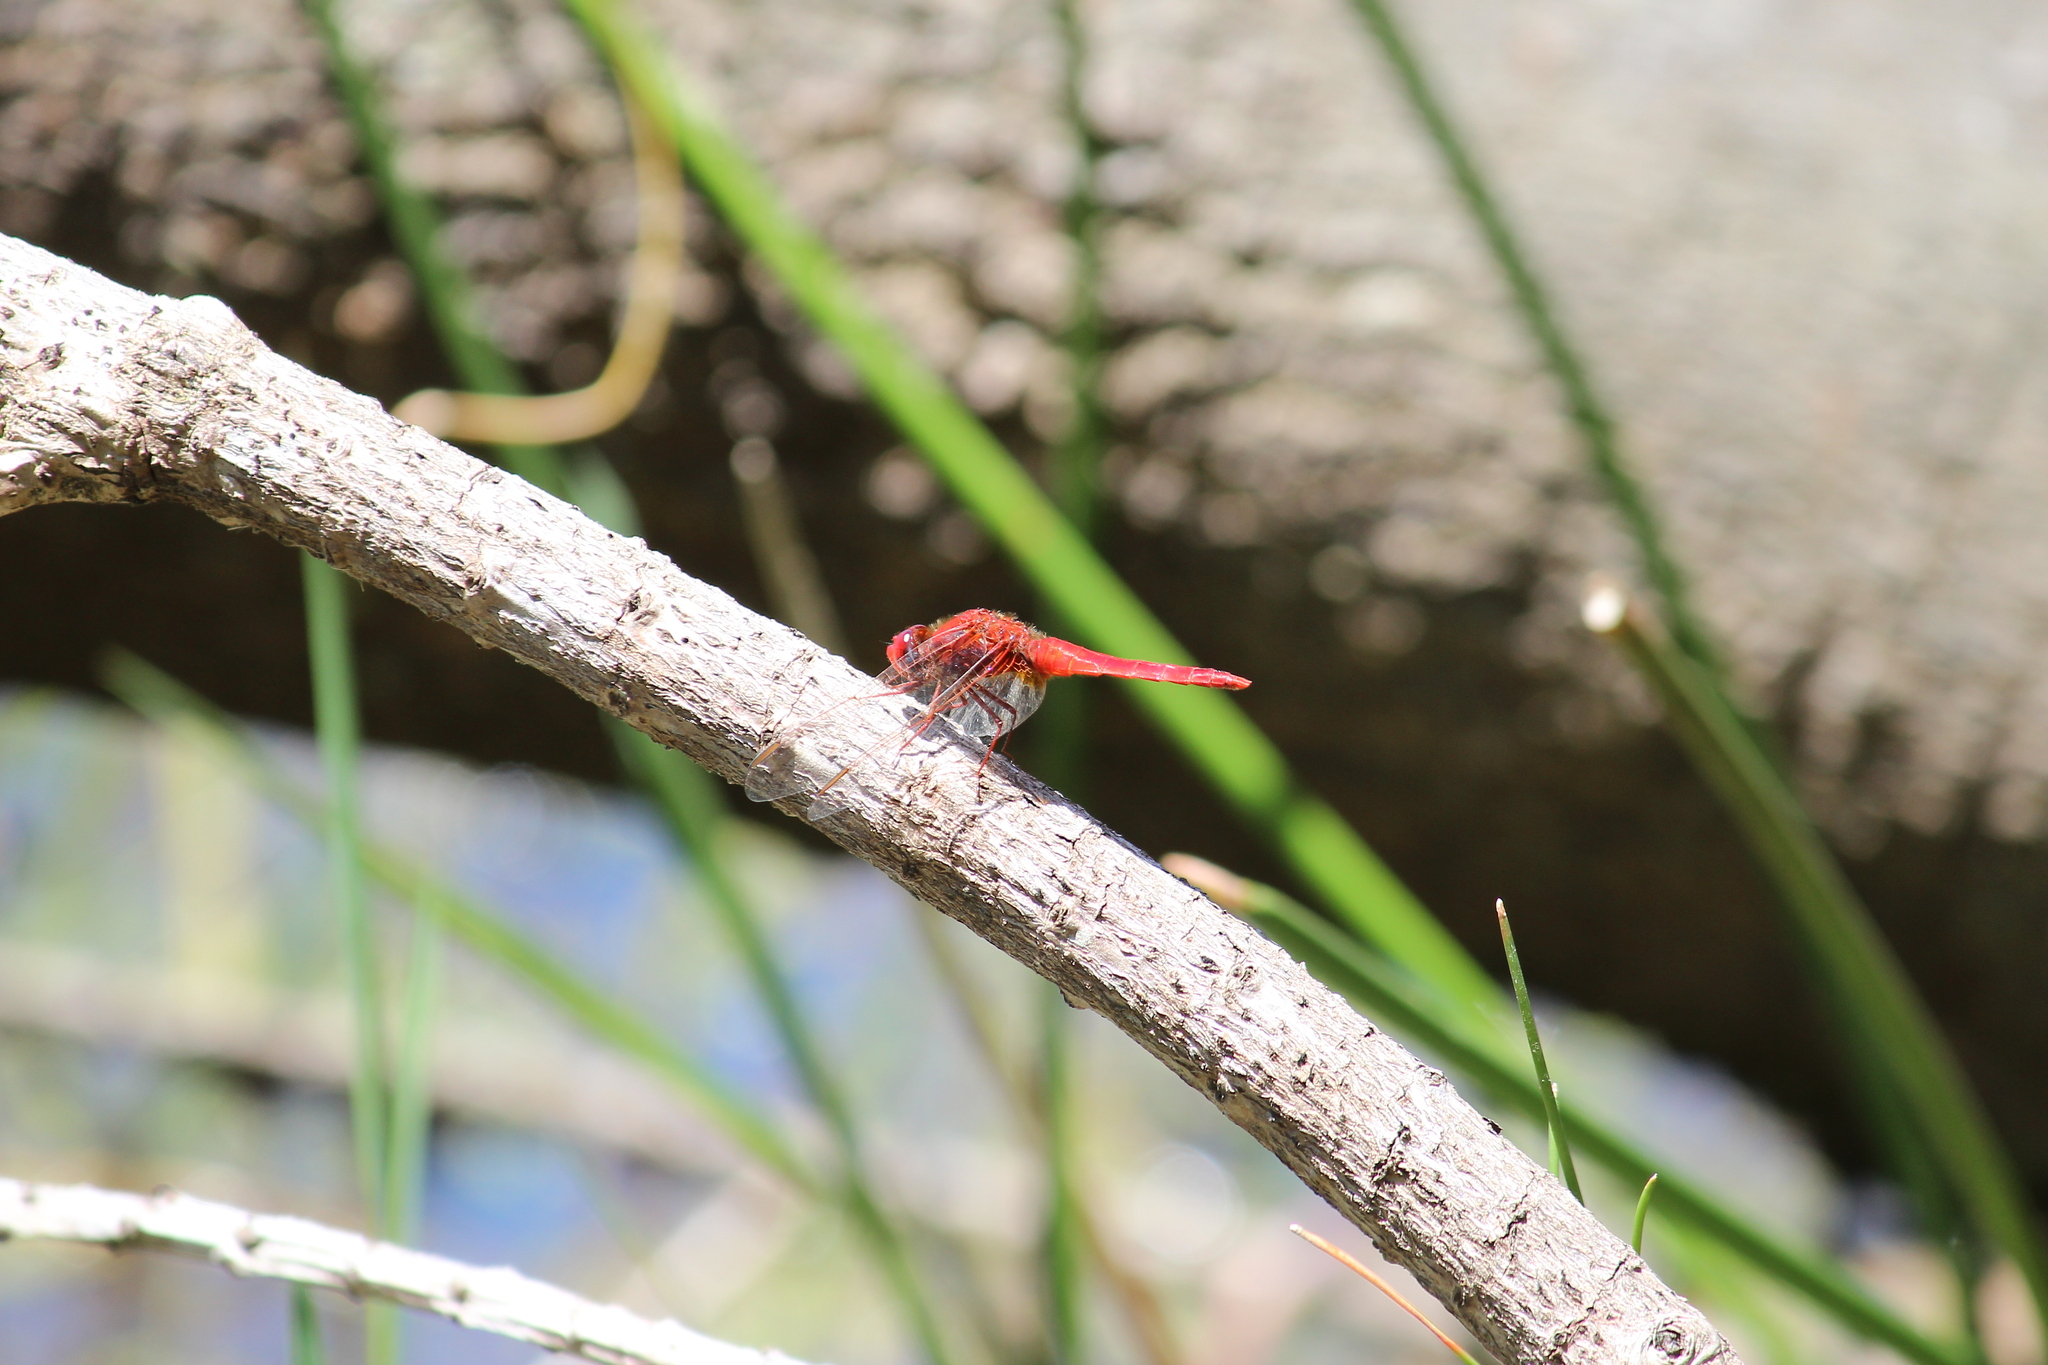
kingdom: Animalia
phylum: Arthropoda
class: Insecta
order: Odonata
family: Libellulidae
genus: Crocothemis
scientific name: Crocothemis erythraea
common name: Scarlet dragonfly
